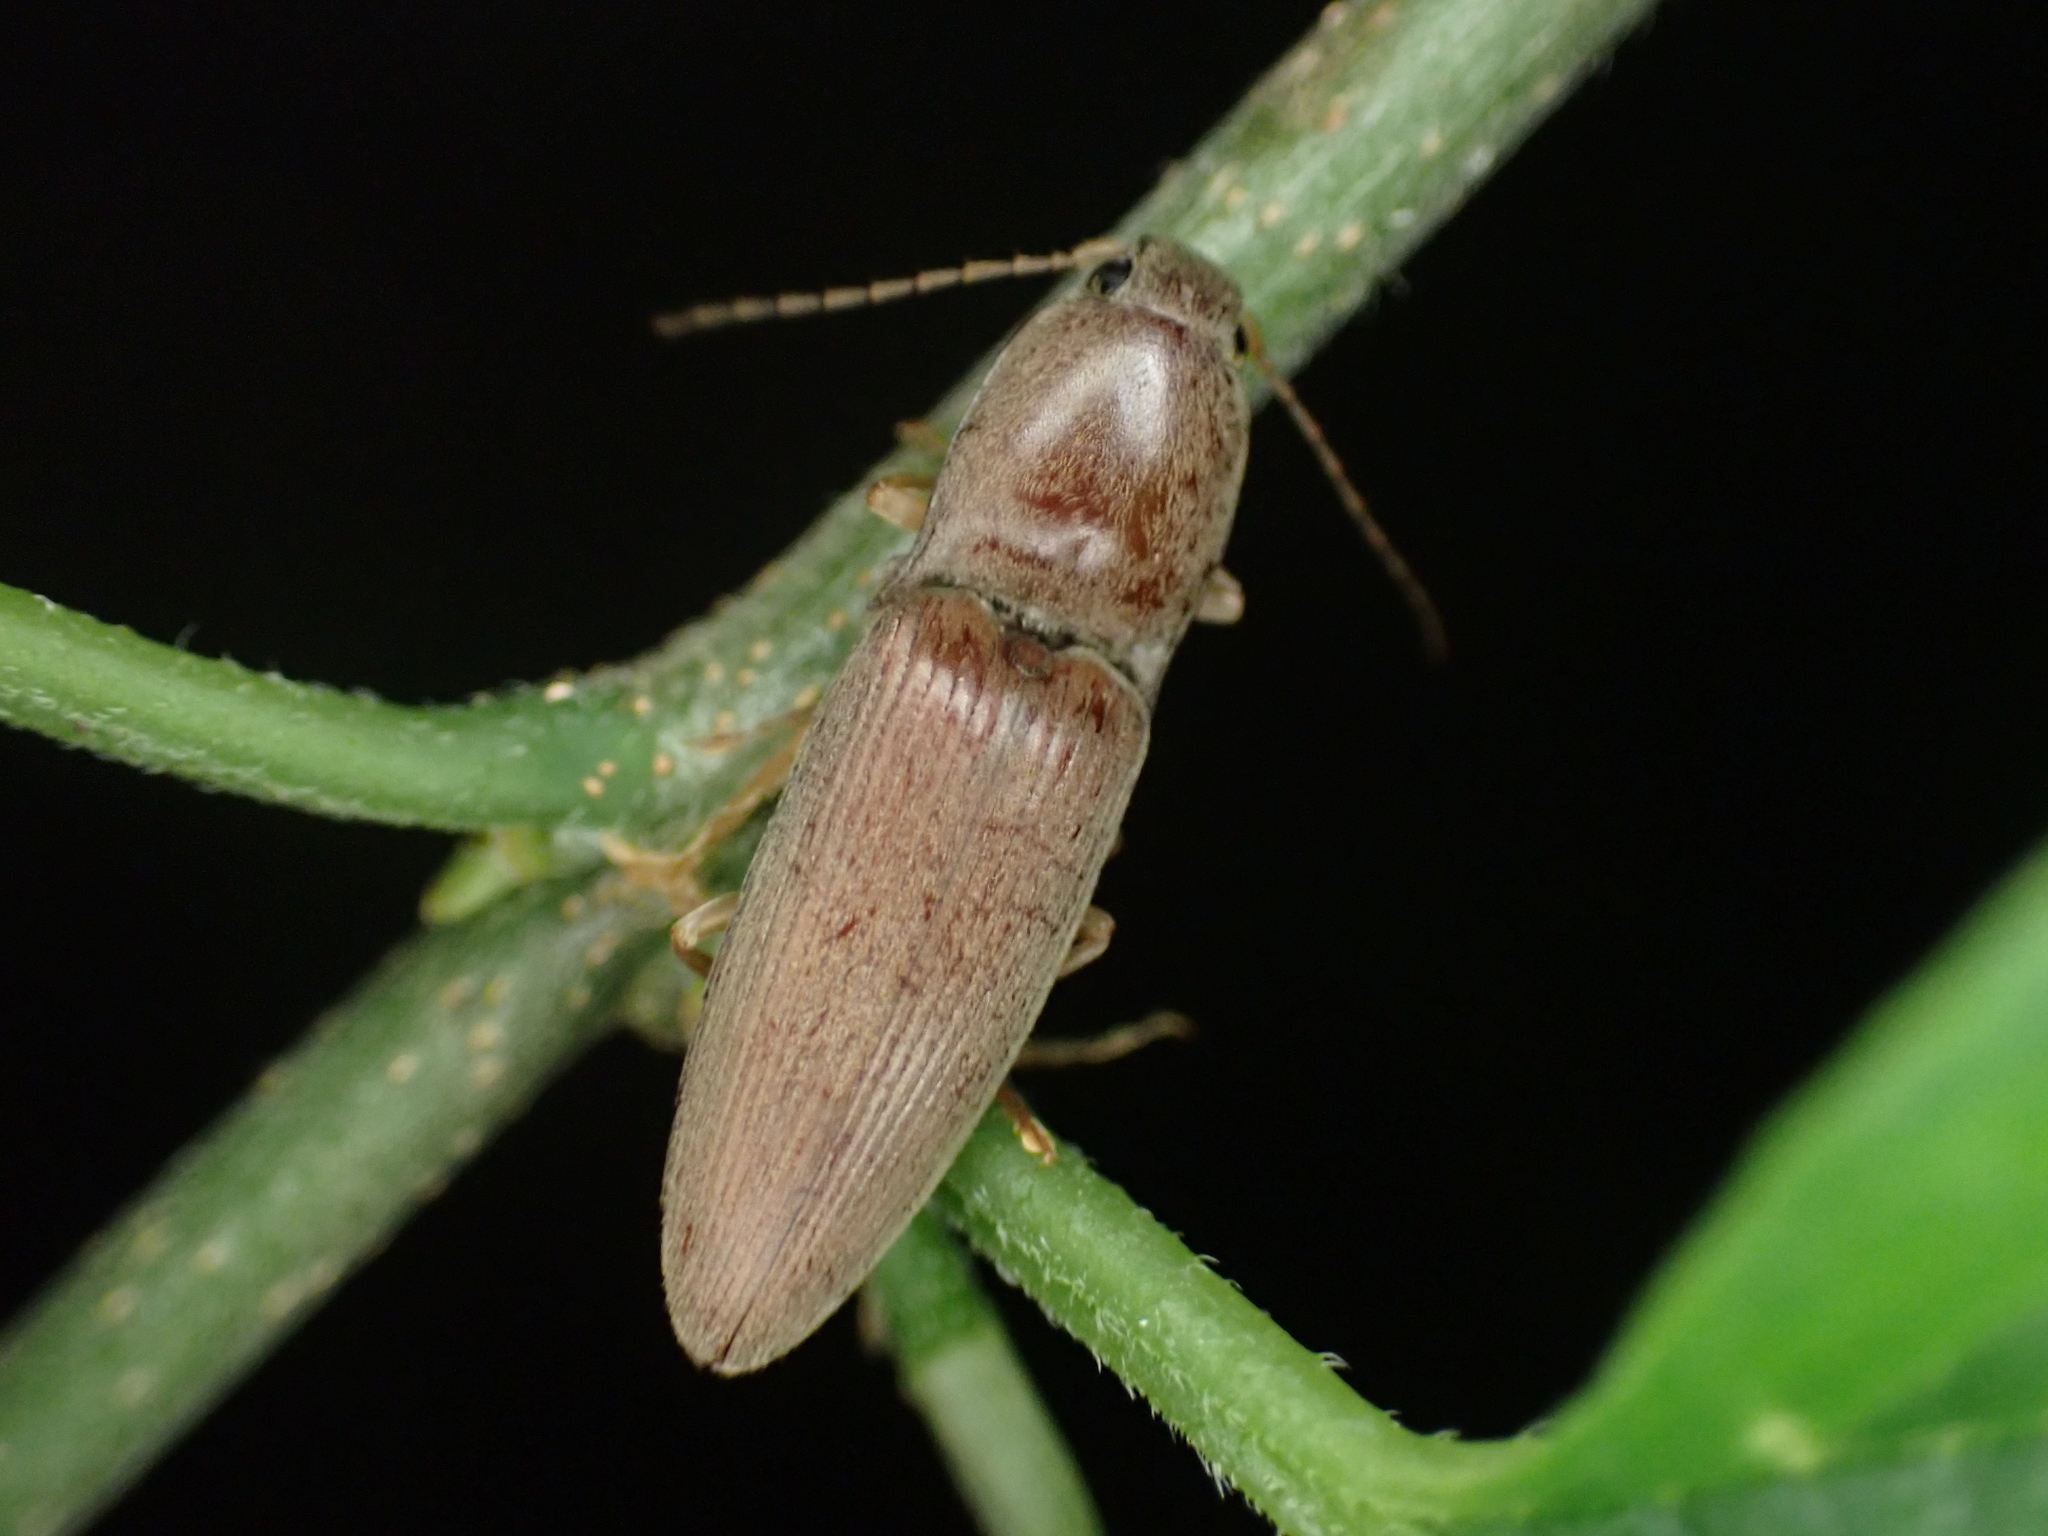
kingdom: Animalia
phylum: Arthropoda
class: Insecta
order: Coleoptera
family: Elateridae
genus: Monocrepidius
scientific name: Monocrepidius lividus
